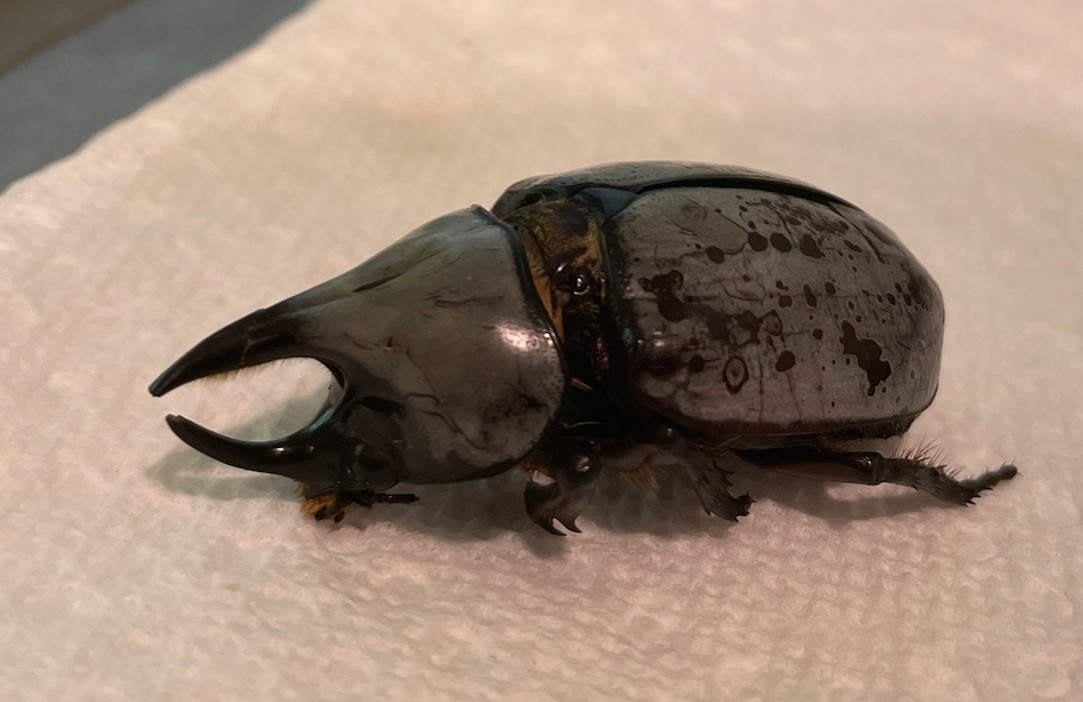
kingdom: Animalia
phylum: Arthropoda
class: Insecta
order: Coleoptera
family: Scarabaeidae
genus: Dynastes
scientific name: Dynastes tityus
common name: Eastern hercules beetle
